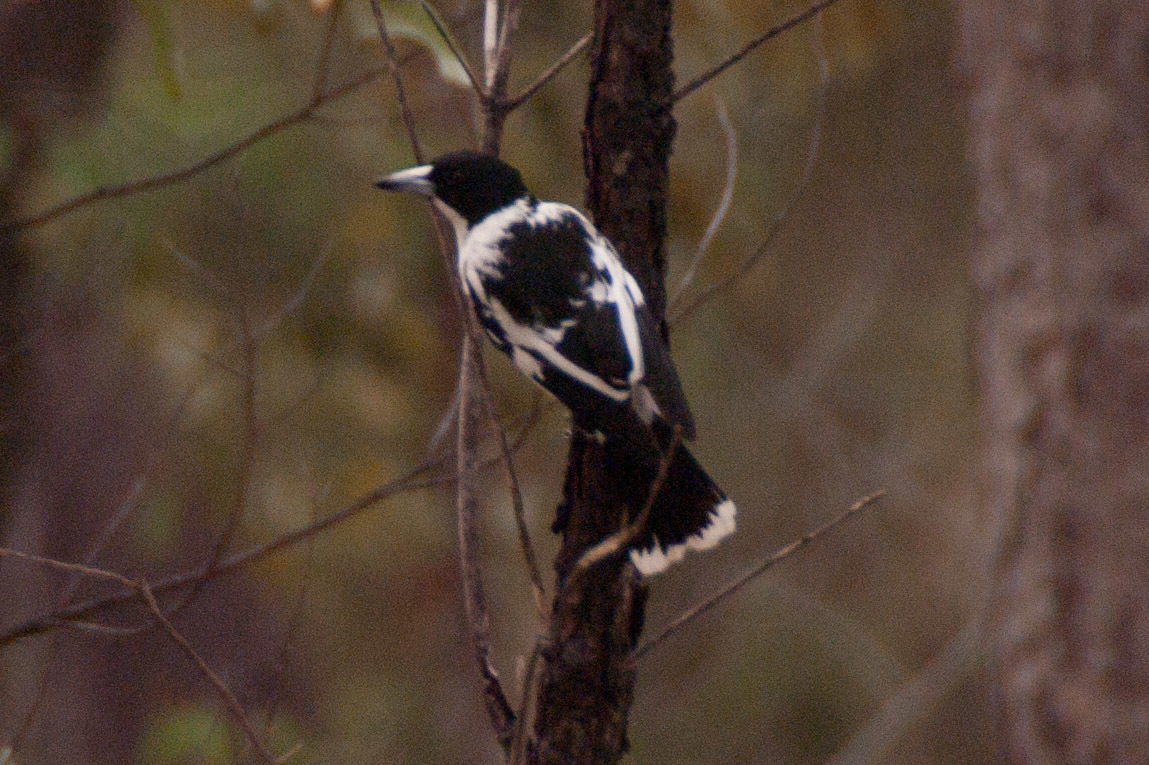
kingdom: Animalia
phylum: Chordata
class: Aves
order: Passeriformes
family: Cracticidae
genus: Cracticus
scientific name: Cracticus mentalis
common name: Black-backed butcherbird
